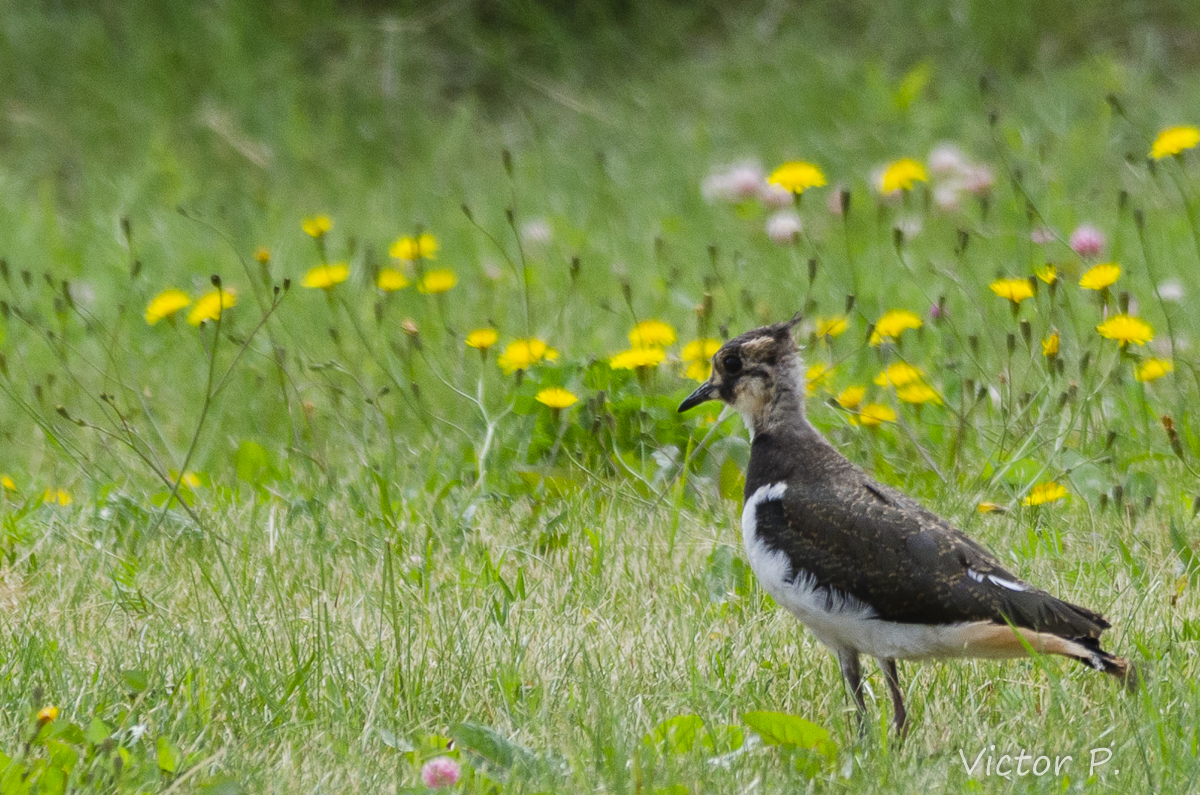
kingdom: Animalia
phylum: Chordata
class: Aves
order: Charadriiformes
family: Charadriidae
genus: Vanellus
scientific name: Vanellus vanellus
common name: Northern lapwing
